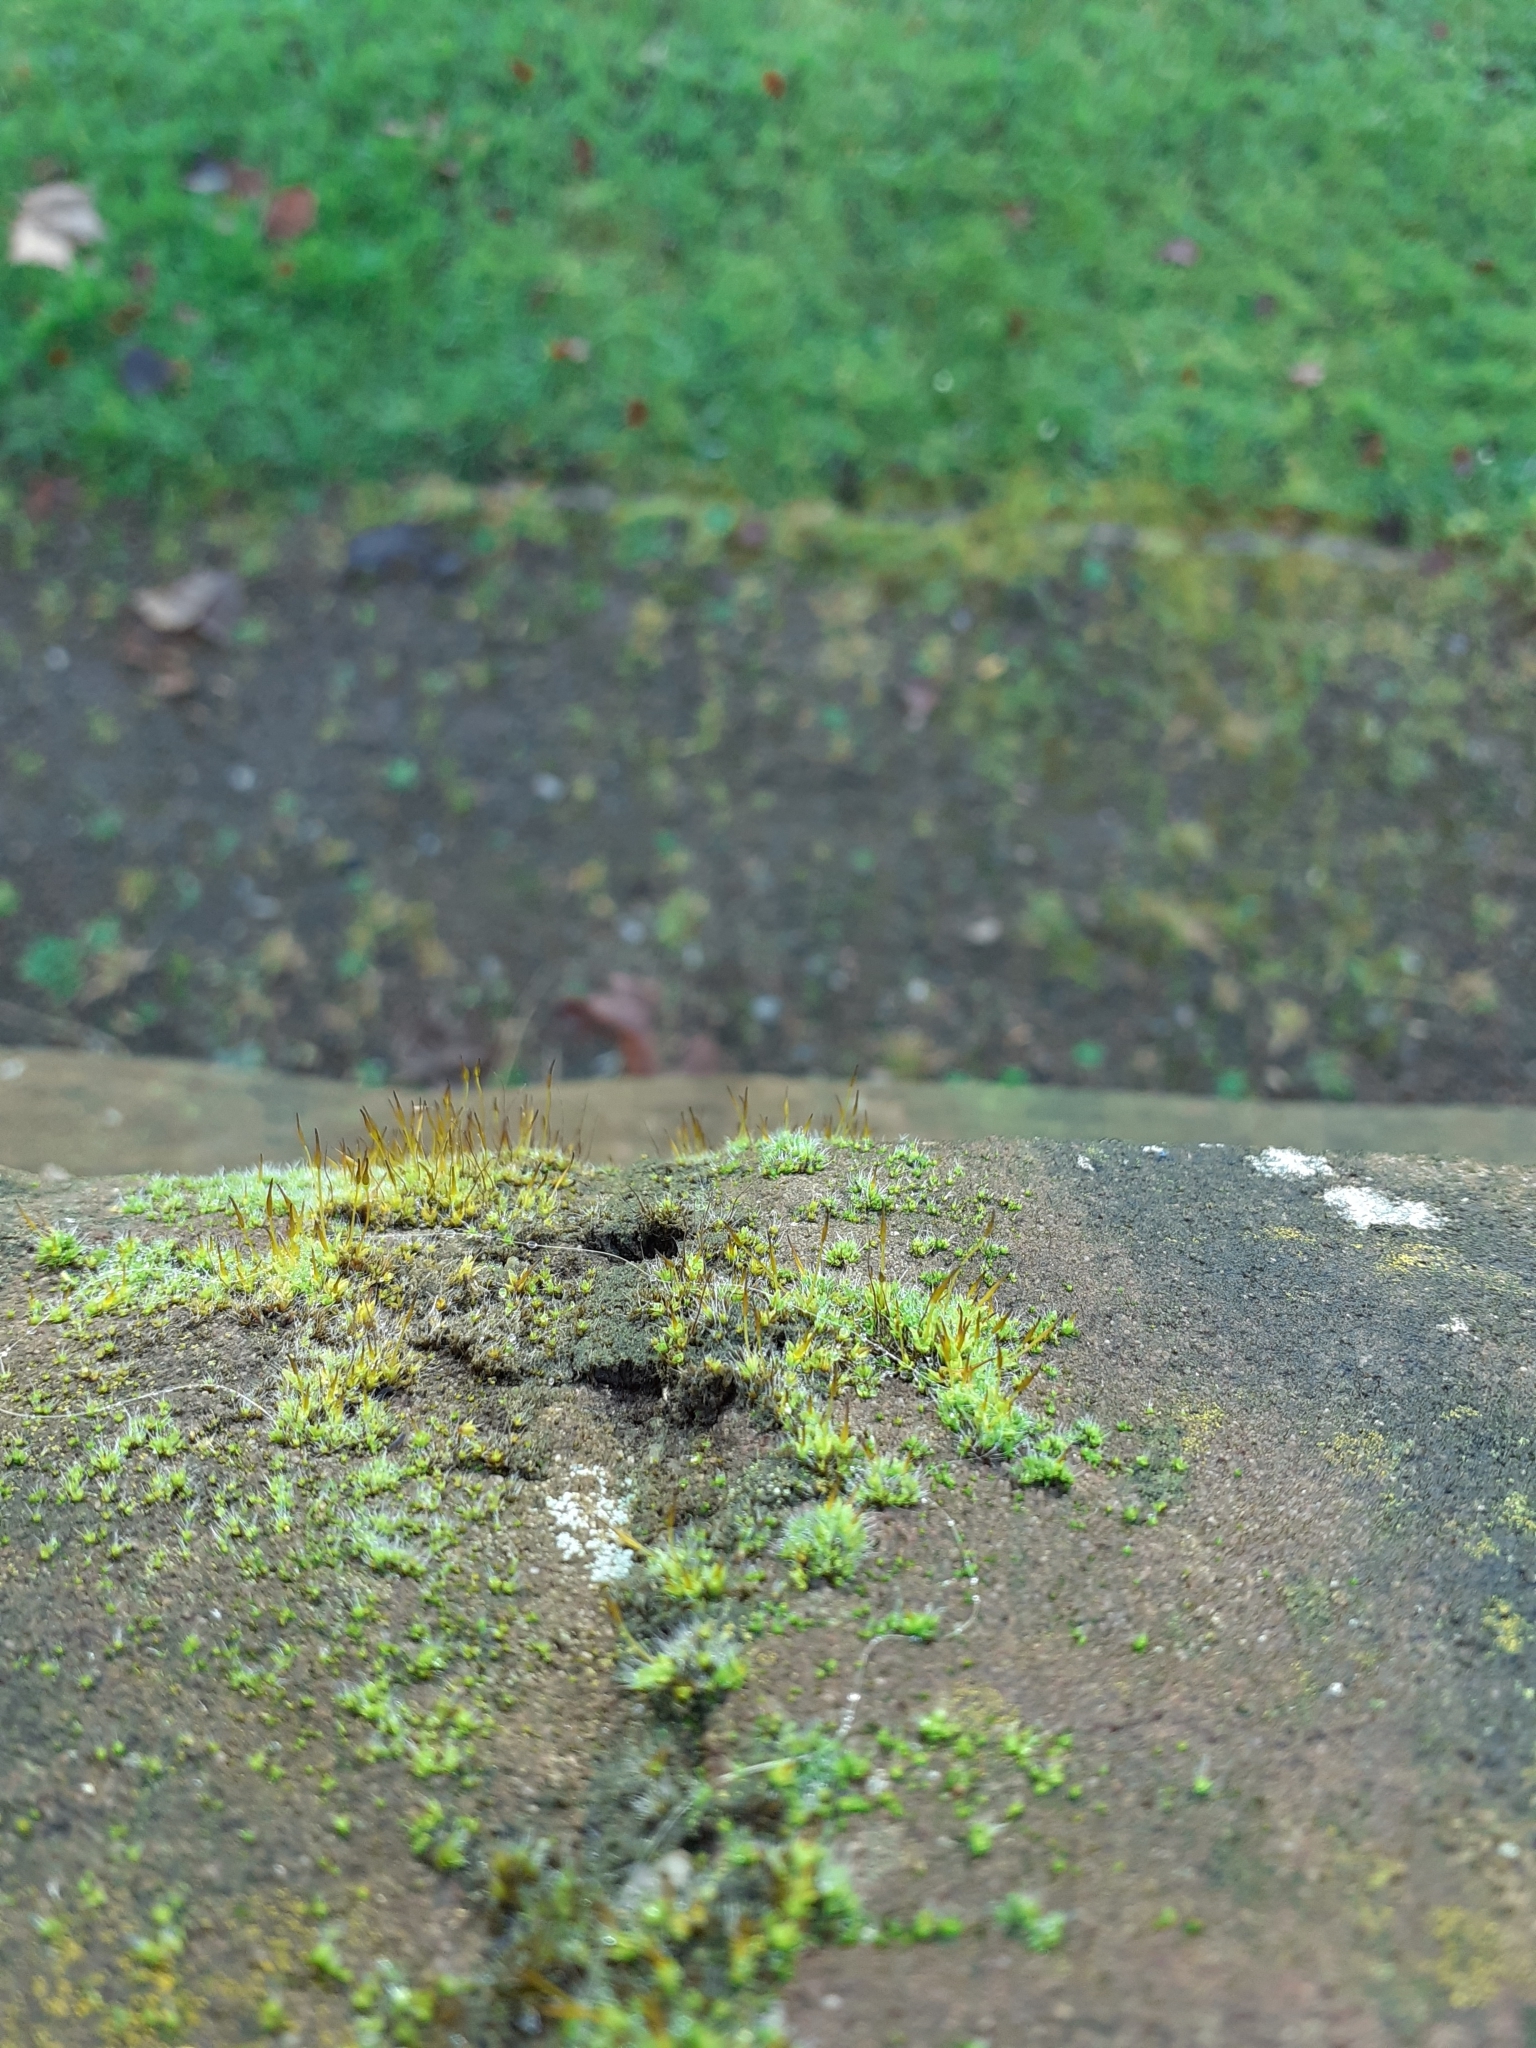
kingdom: Plantae
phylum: Bryophyta
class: Bryopsida
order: Pottiales
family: Pottiaceae
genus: Tortula
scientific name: Tortula muralis
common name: Wall screw-moss
